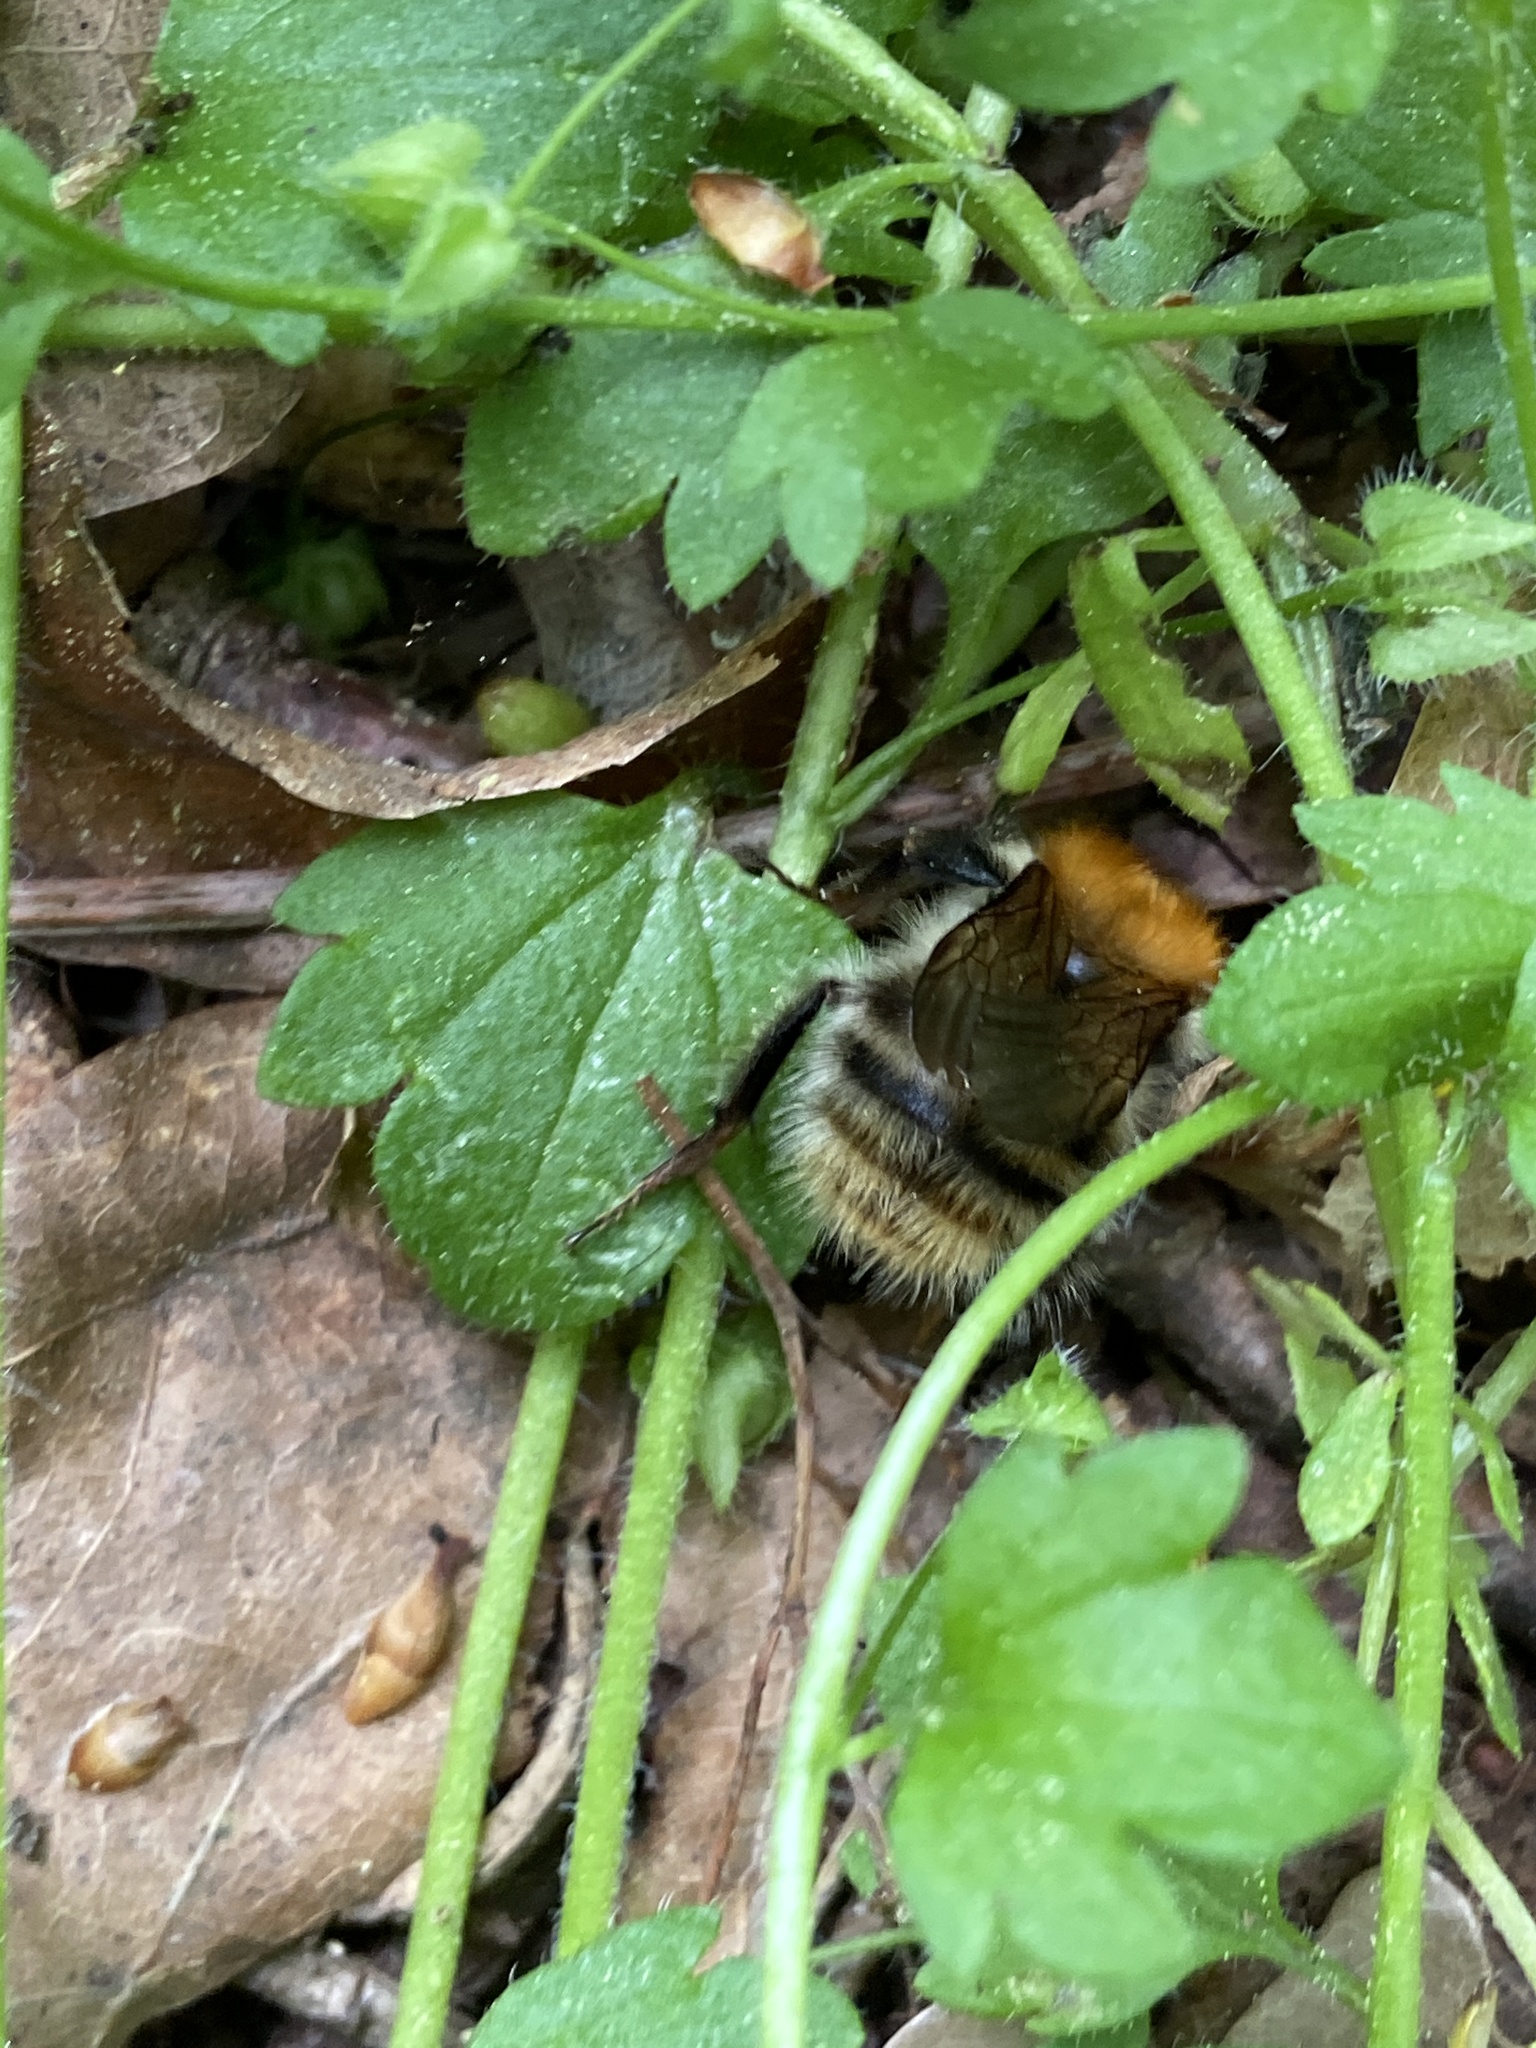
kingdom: Animalia
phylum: Arthropoda
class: Insecta
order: Hymenoptera
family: Apidae
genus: Bombus
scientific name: Bombus pascuorum
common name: Common carder bee
